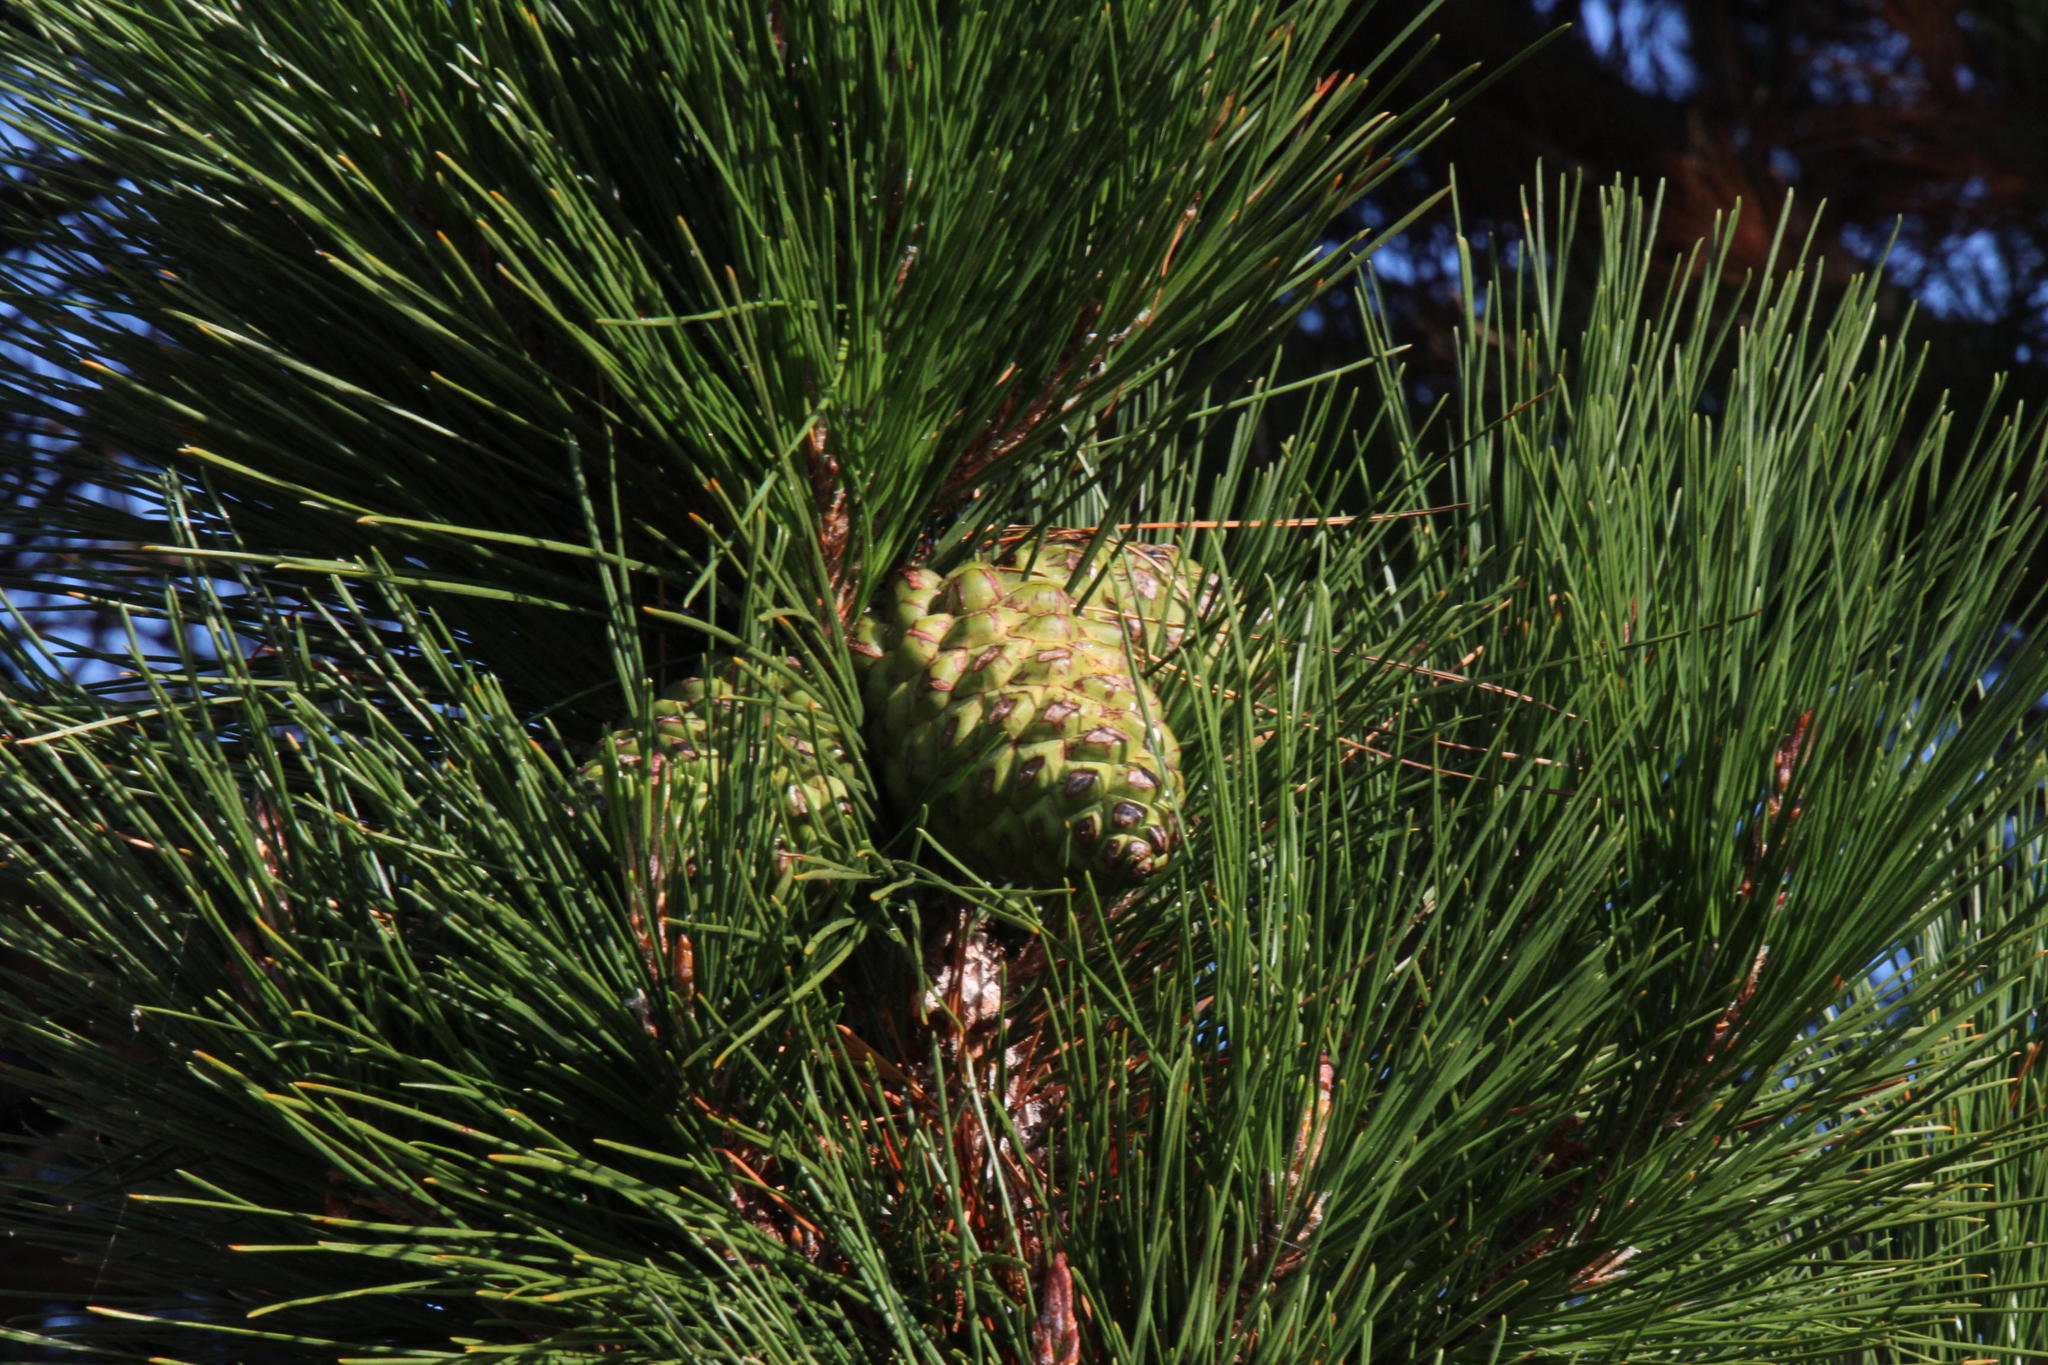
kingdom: Plantae
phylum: Tracheophyta
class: Pinopsida
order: Pinales
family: Pinaceae
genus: Pinus
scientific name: Pinus radiata
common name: Monterey pine
